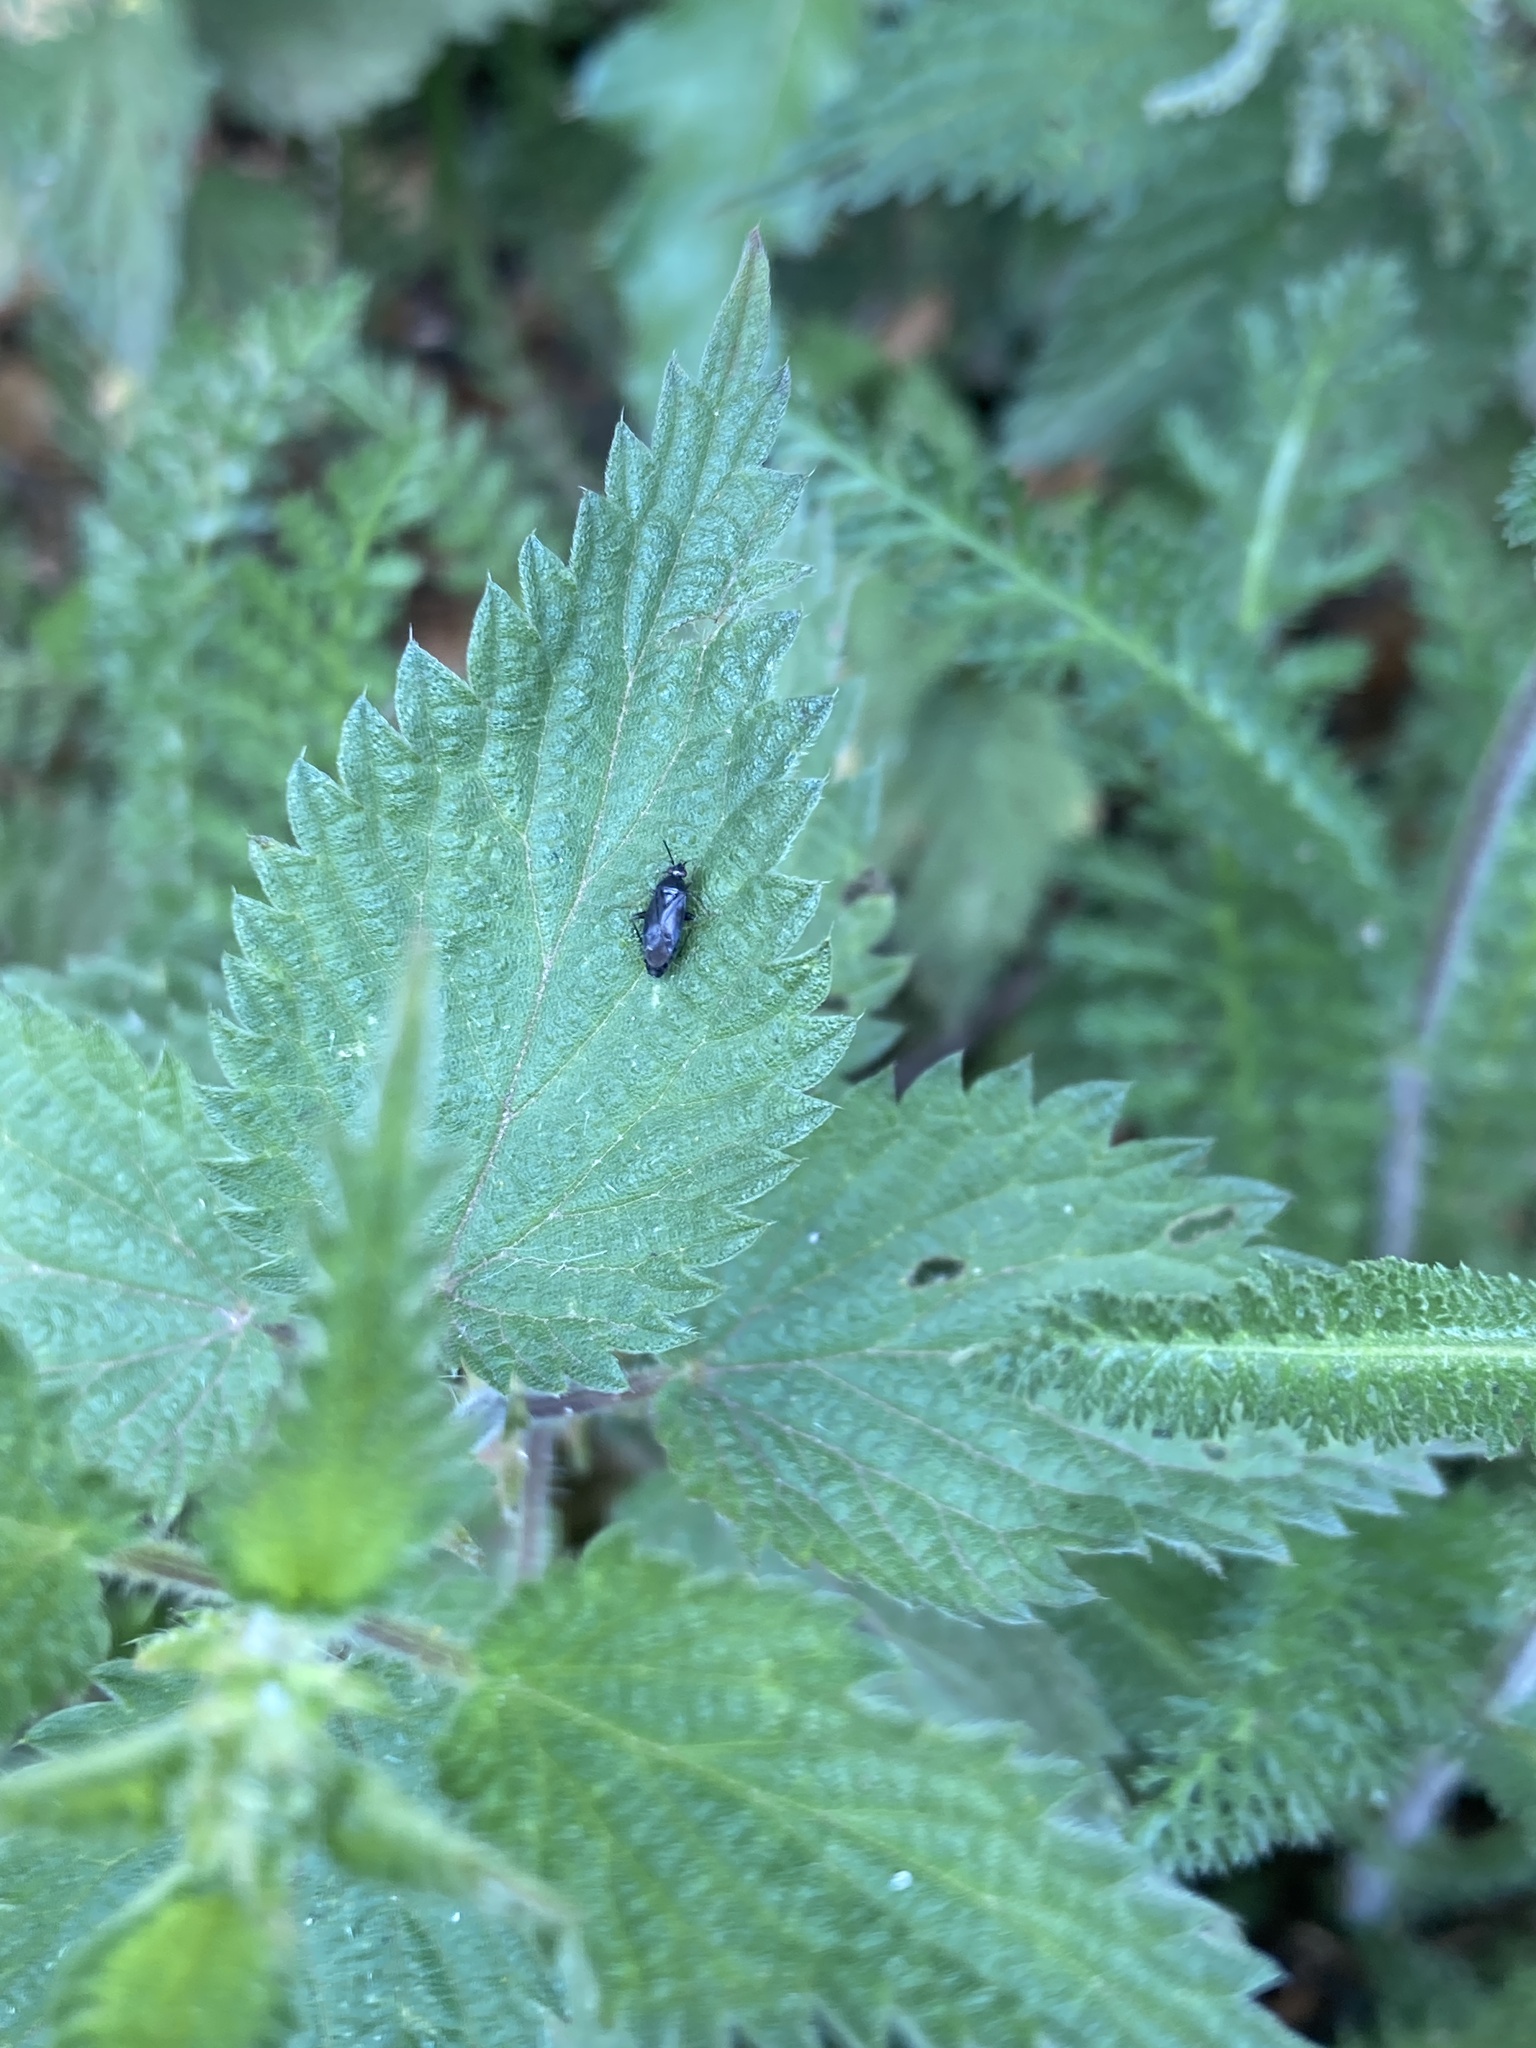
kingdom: Animalia
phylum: Arthropoda
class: Insecta
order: Hemiptera
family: Miridae
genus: Plagiognathus
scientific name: Plagiognathus arbustorum
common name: Plant bug
